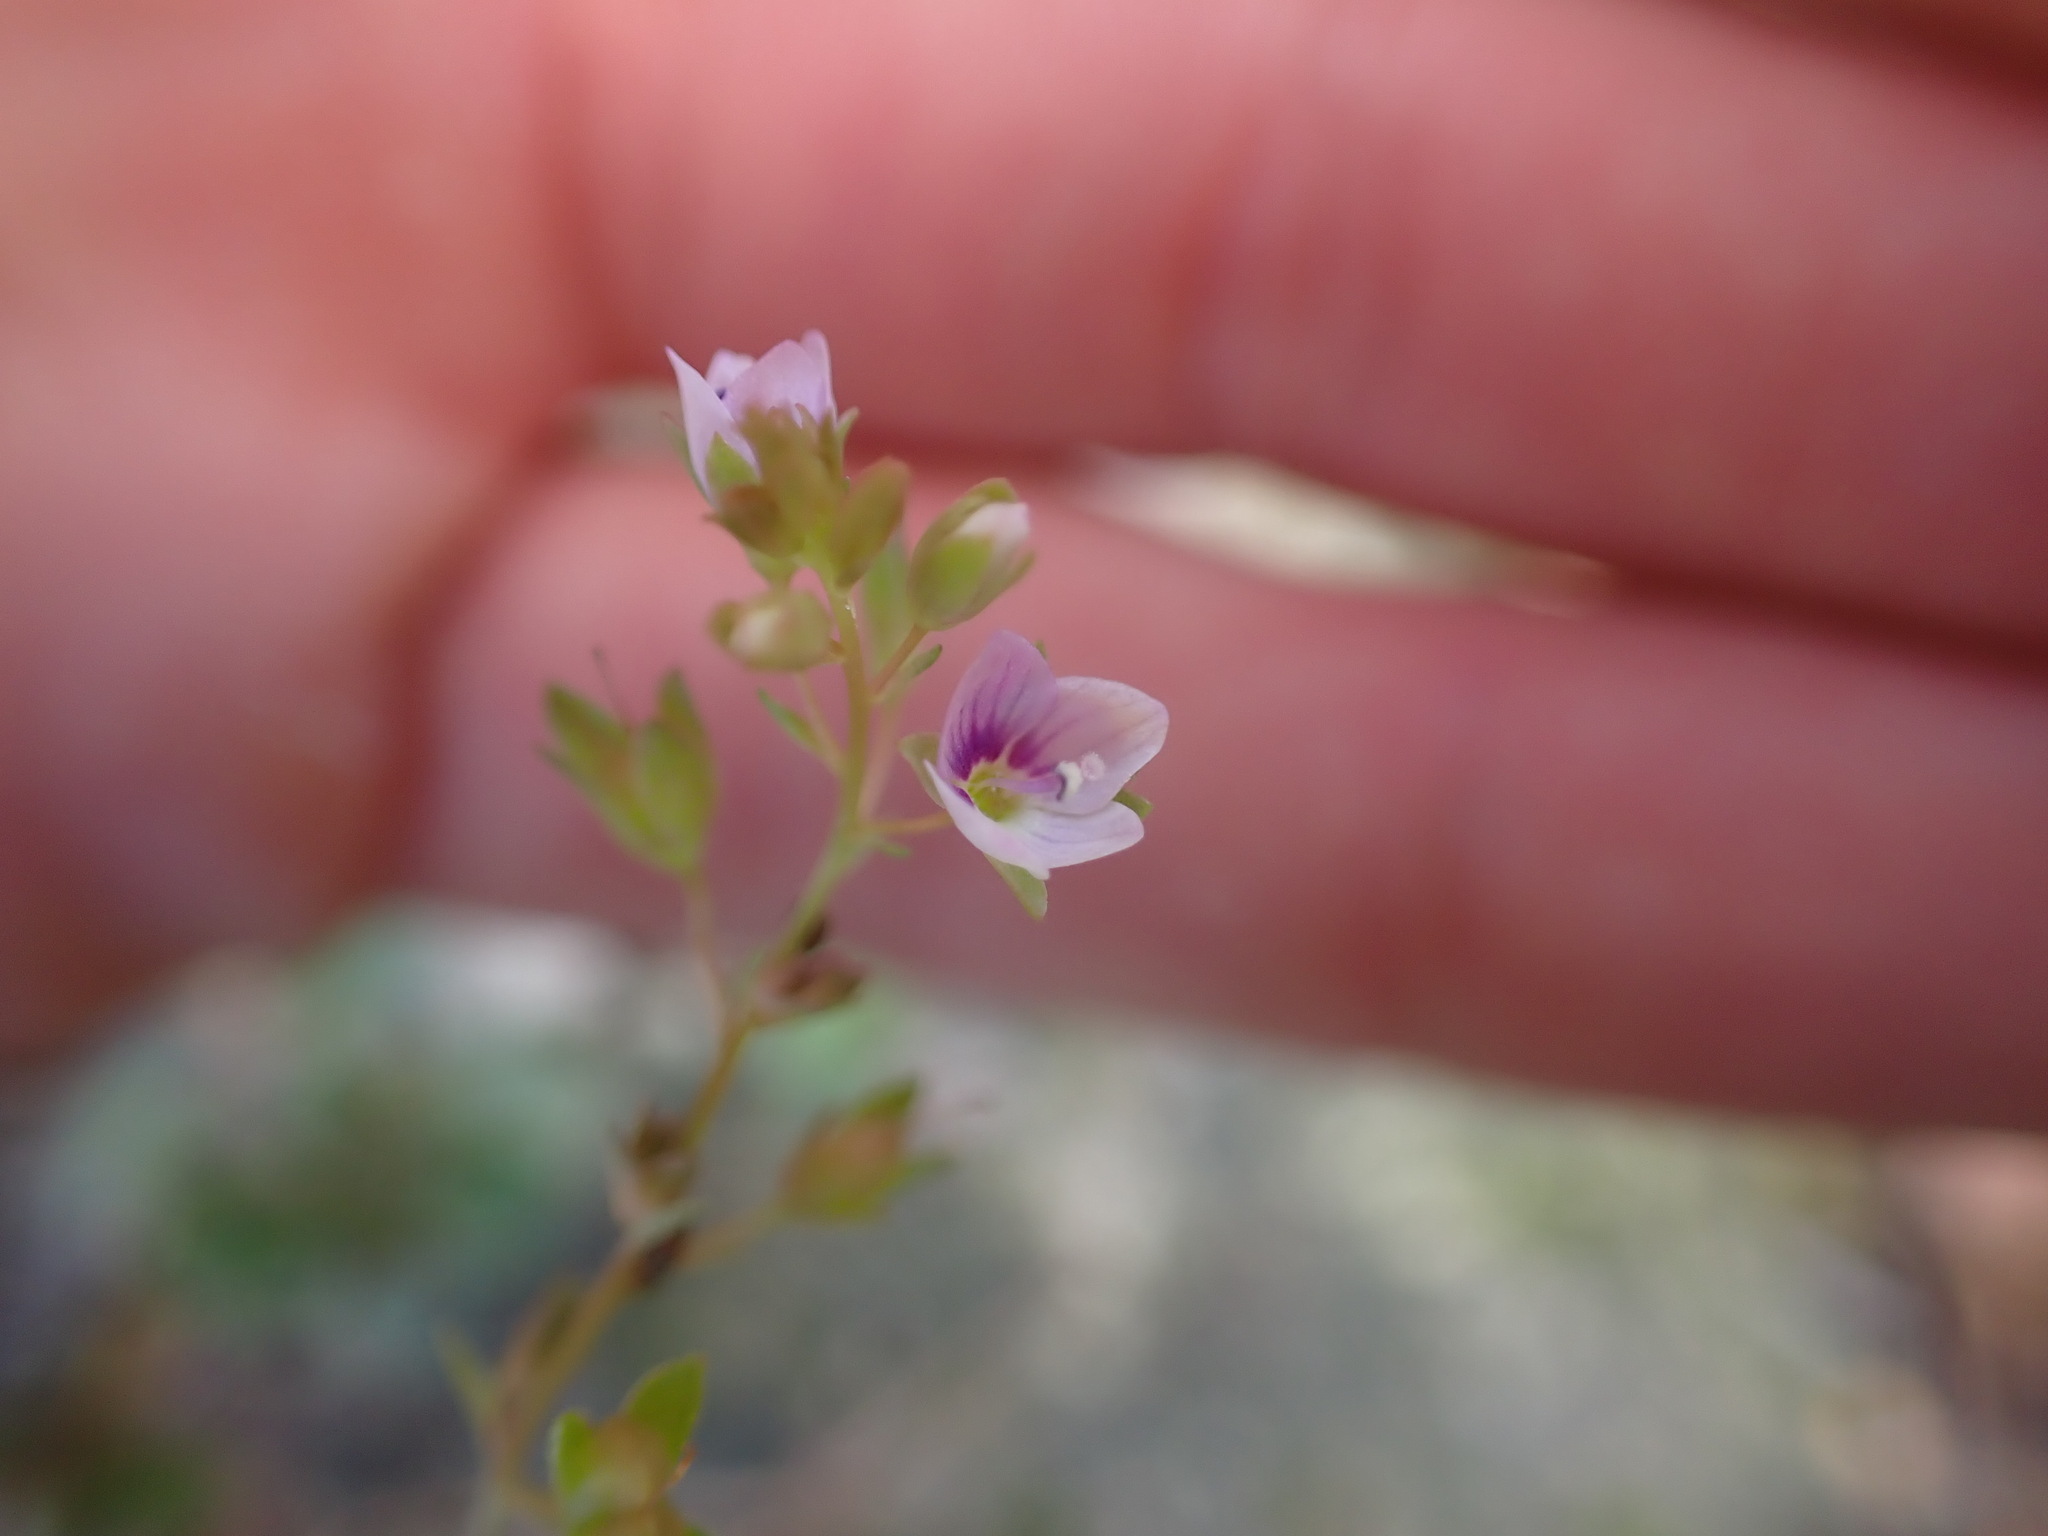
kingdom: Plantae
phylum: Tracheophyta
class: Magnoliopsida
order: Lamiales
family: Plantaginaceae
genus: Veronica
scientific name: Veronica catenata
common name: Pink water-speedwell
